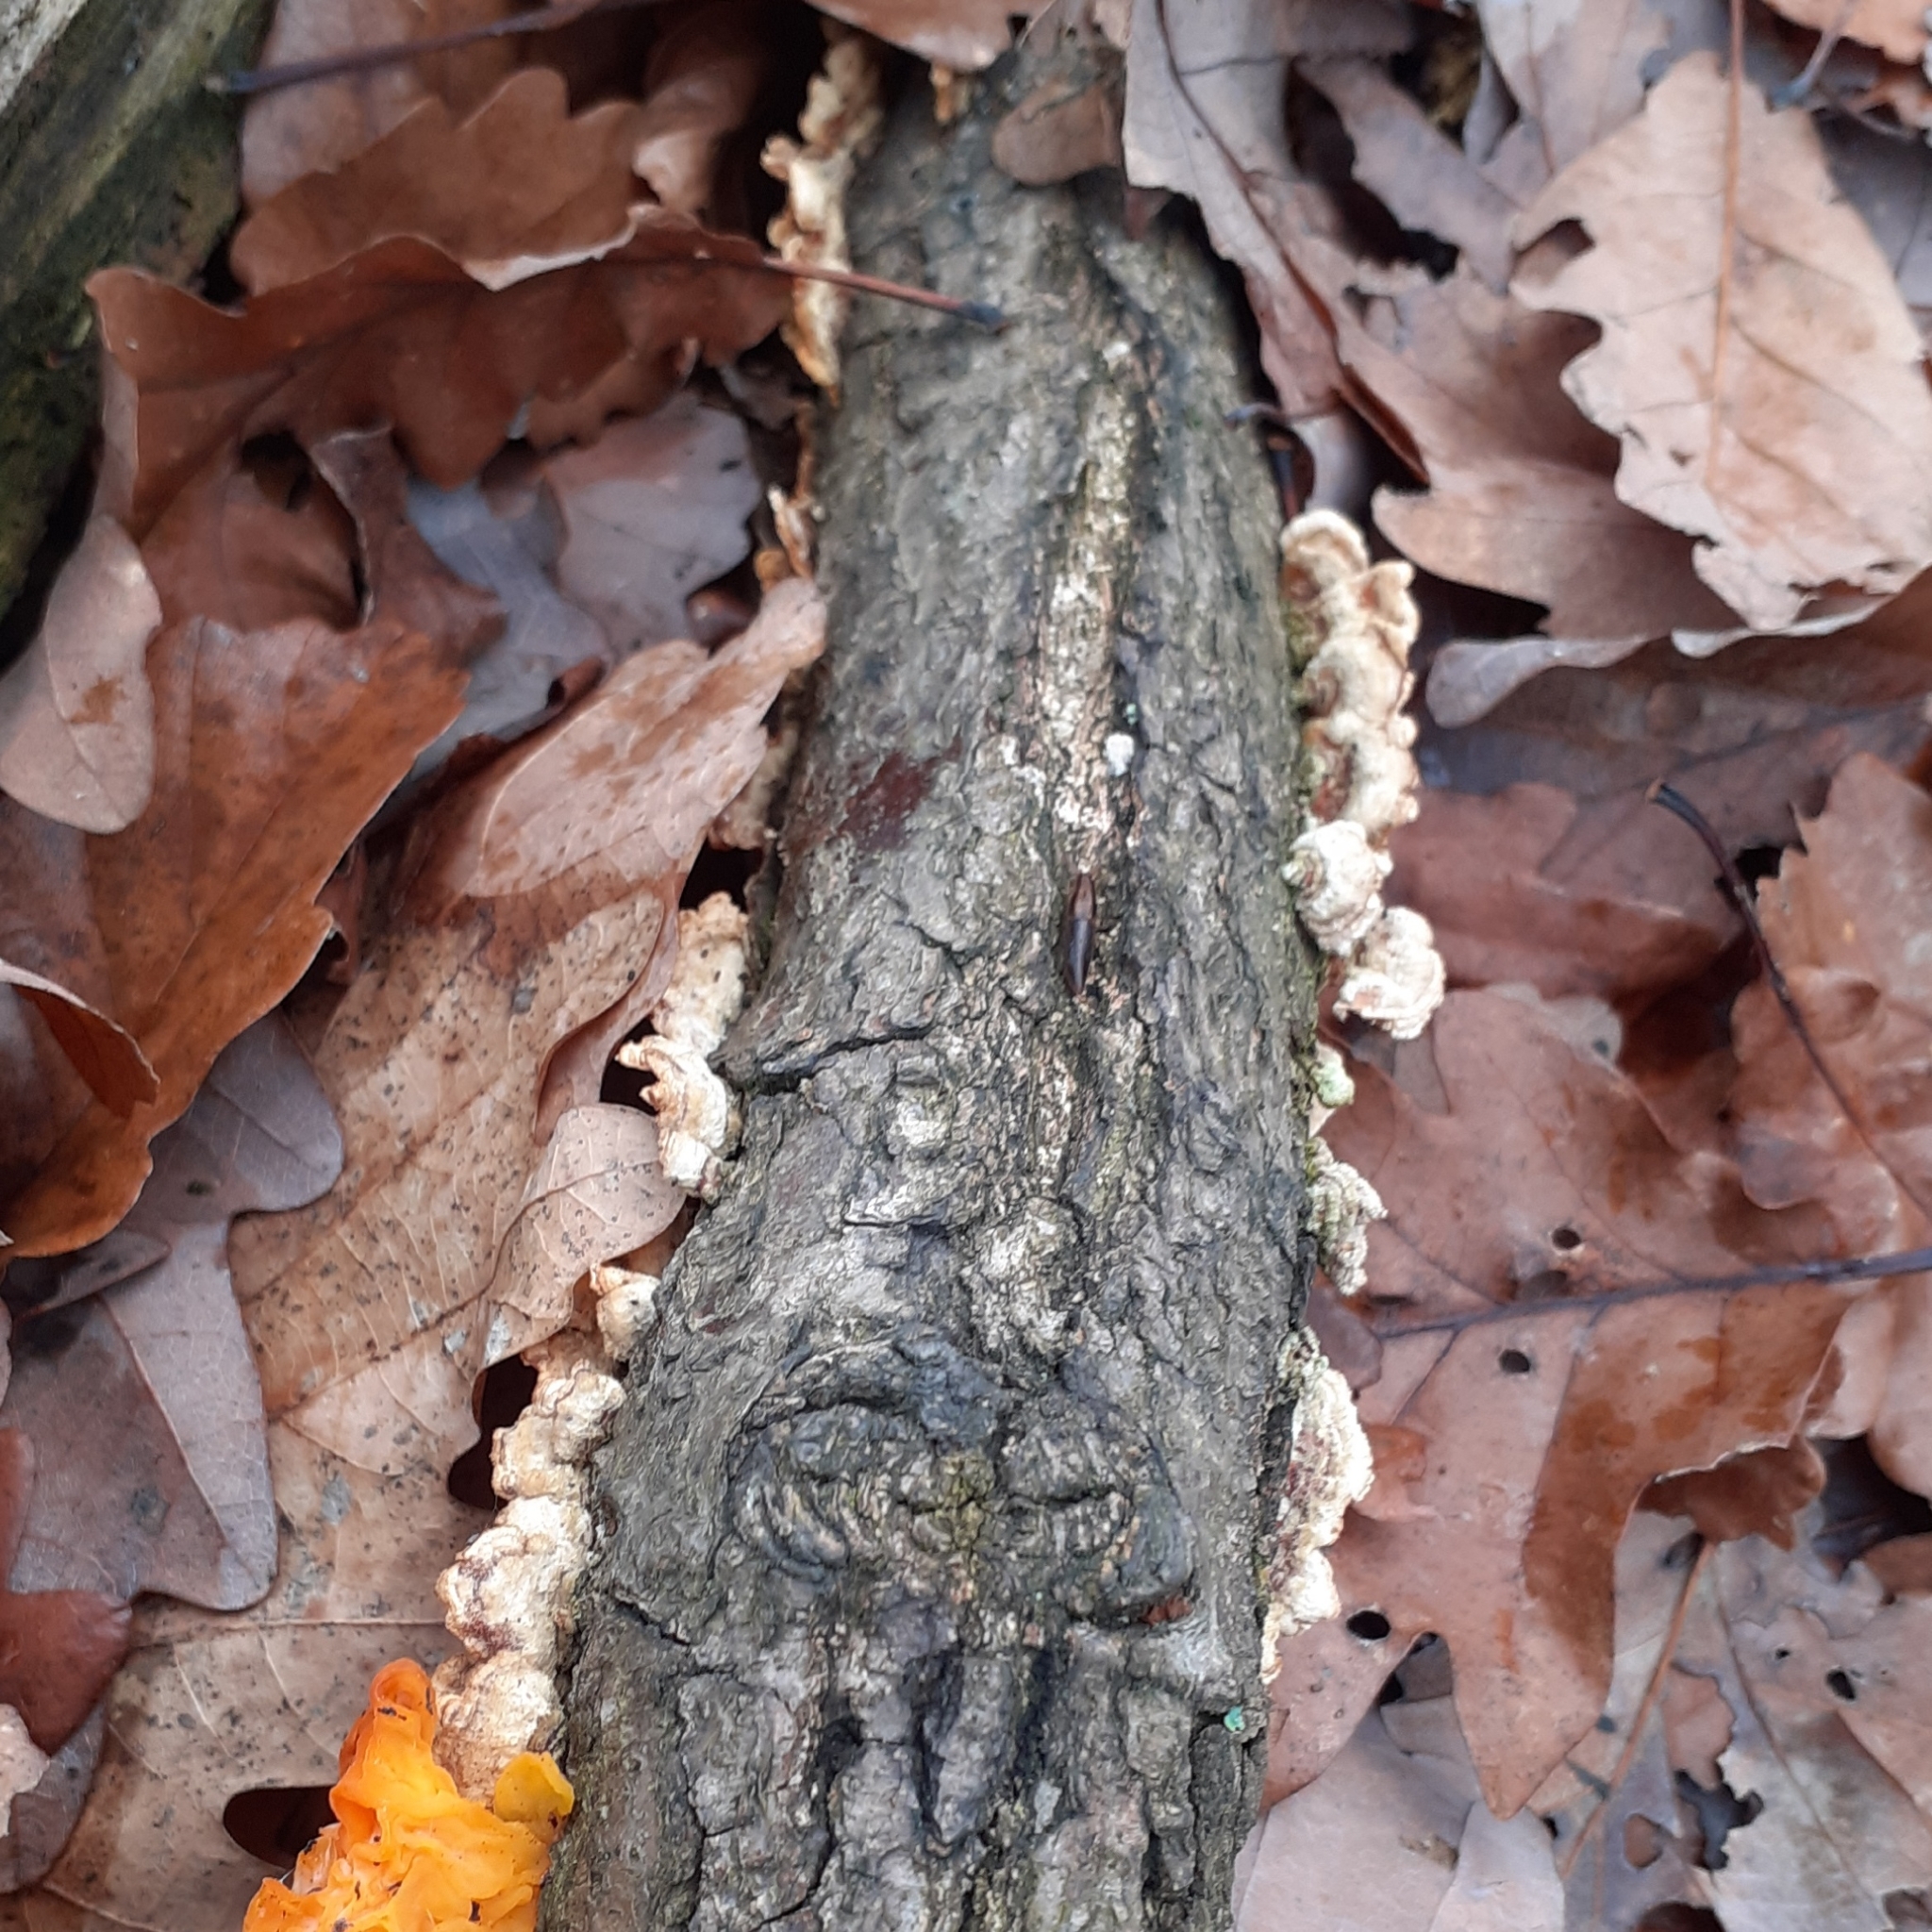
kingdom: Fungi
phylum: Basidiomycota
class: Agaricomycetes
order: Russulales
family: Stereaceae
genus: Stereum
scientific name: Stereum hirsutum
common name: Hairy curtain crust
